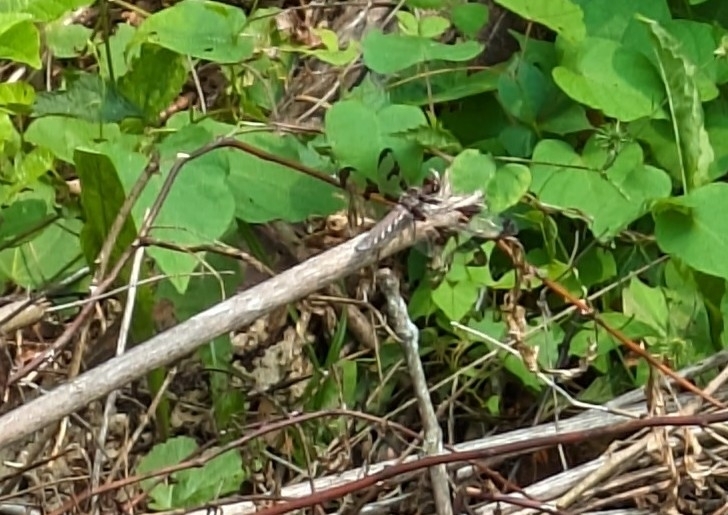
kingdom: Animalia
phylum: Arthropoda
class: Insecta
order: Odonata
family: Libellulidae
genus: Plathemis
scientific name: Plathemis lydia
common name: Common whitetail
